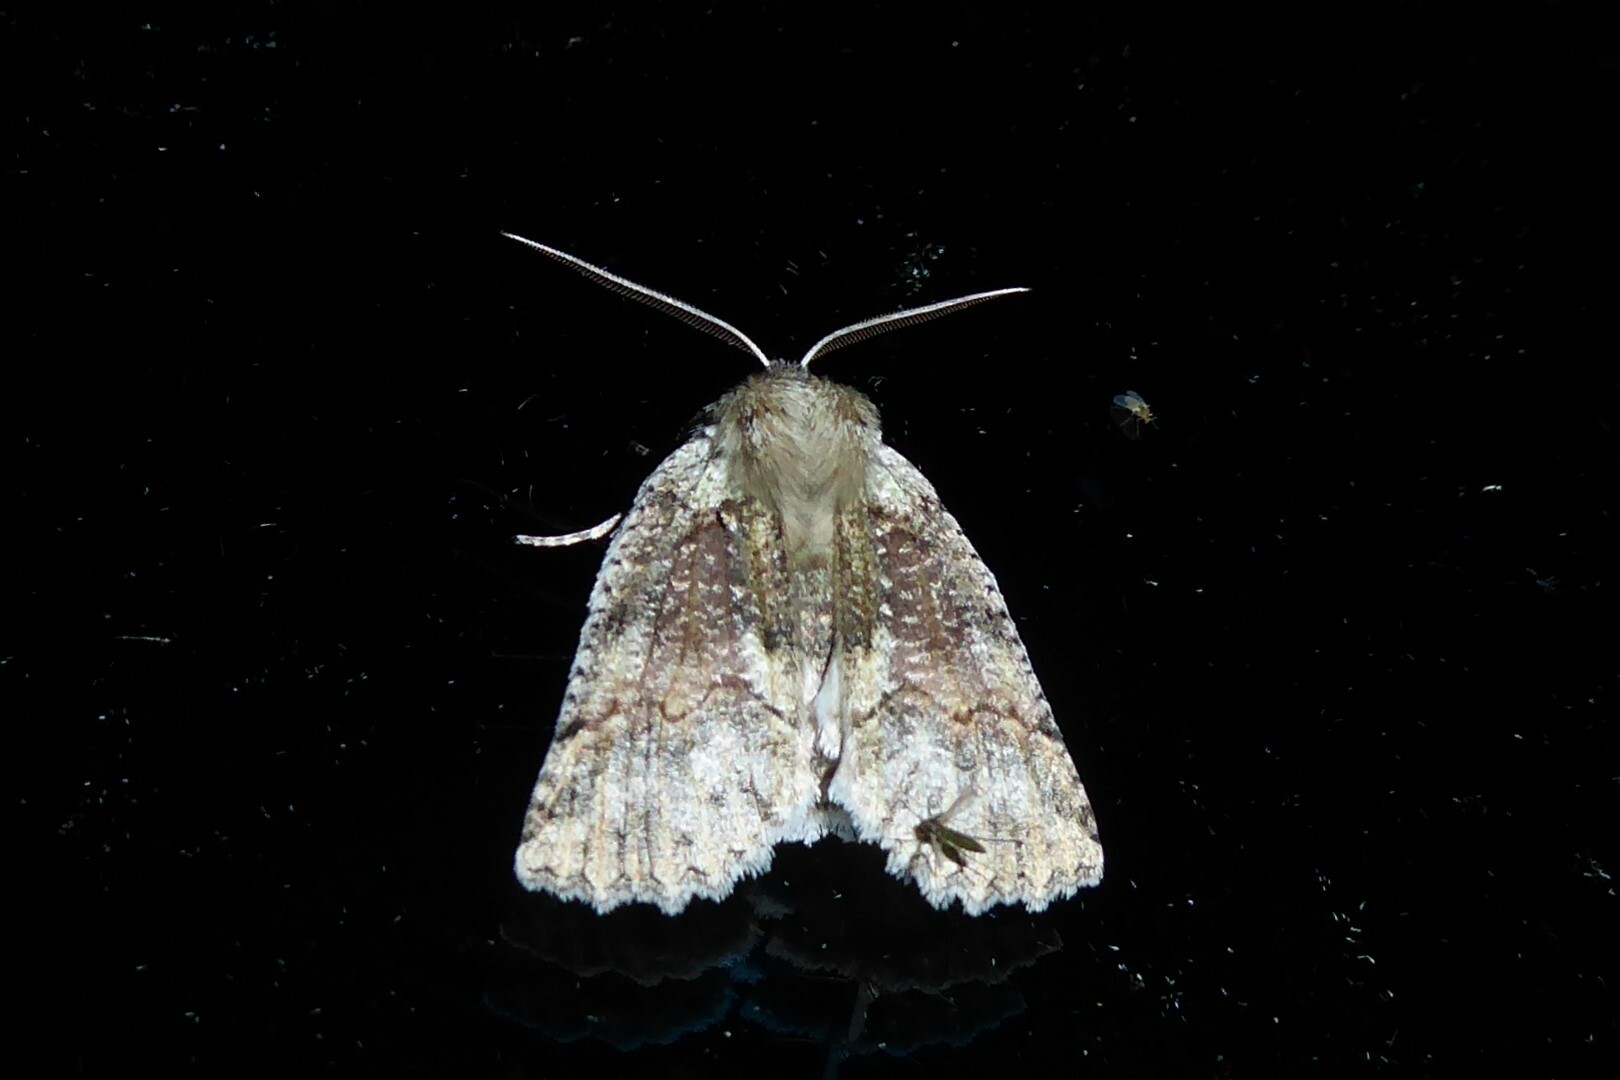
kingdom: Animalia
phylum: Arthropoda
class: Insecta
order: Lepidoptera
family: Geometridae
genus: Declana
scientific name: Declana floccosa
